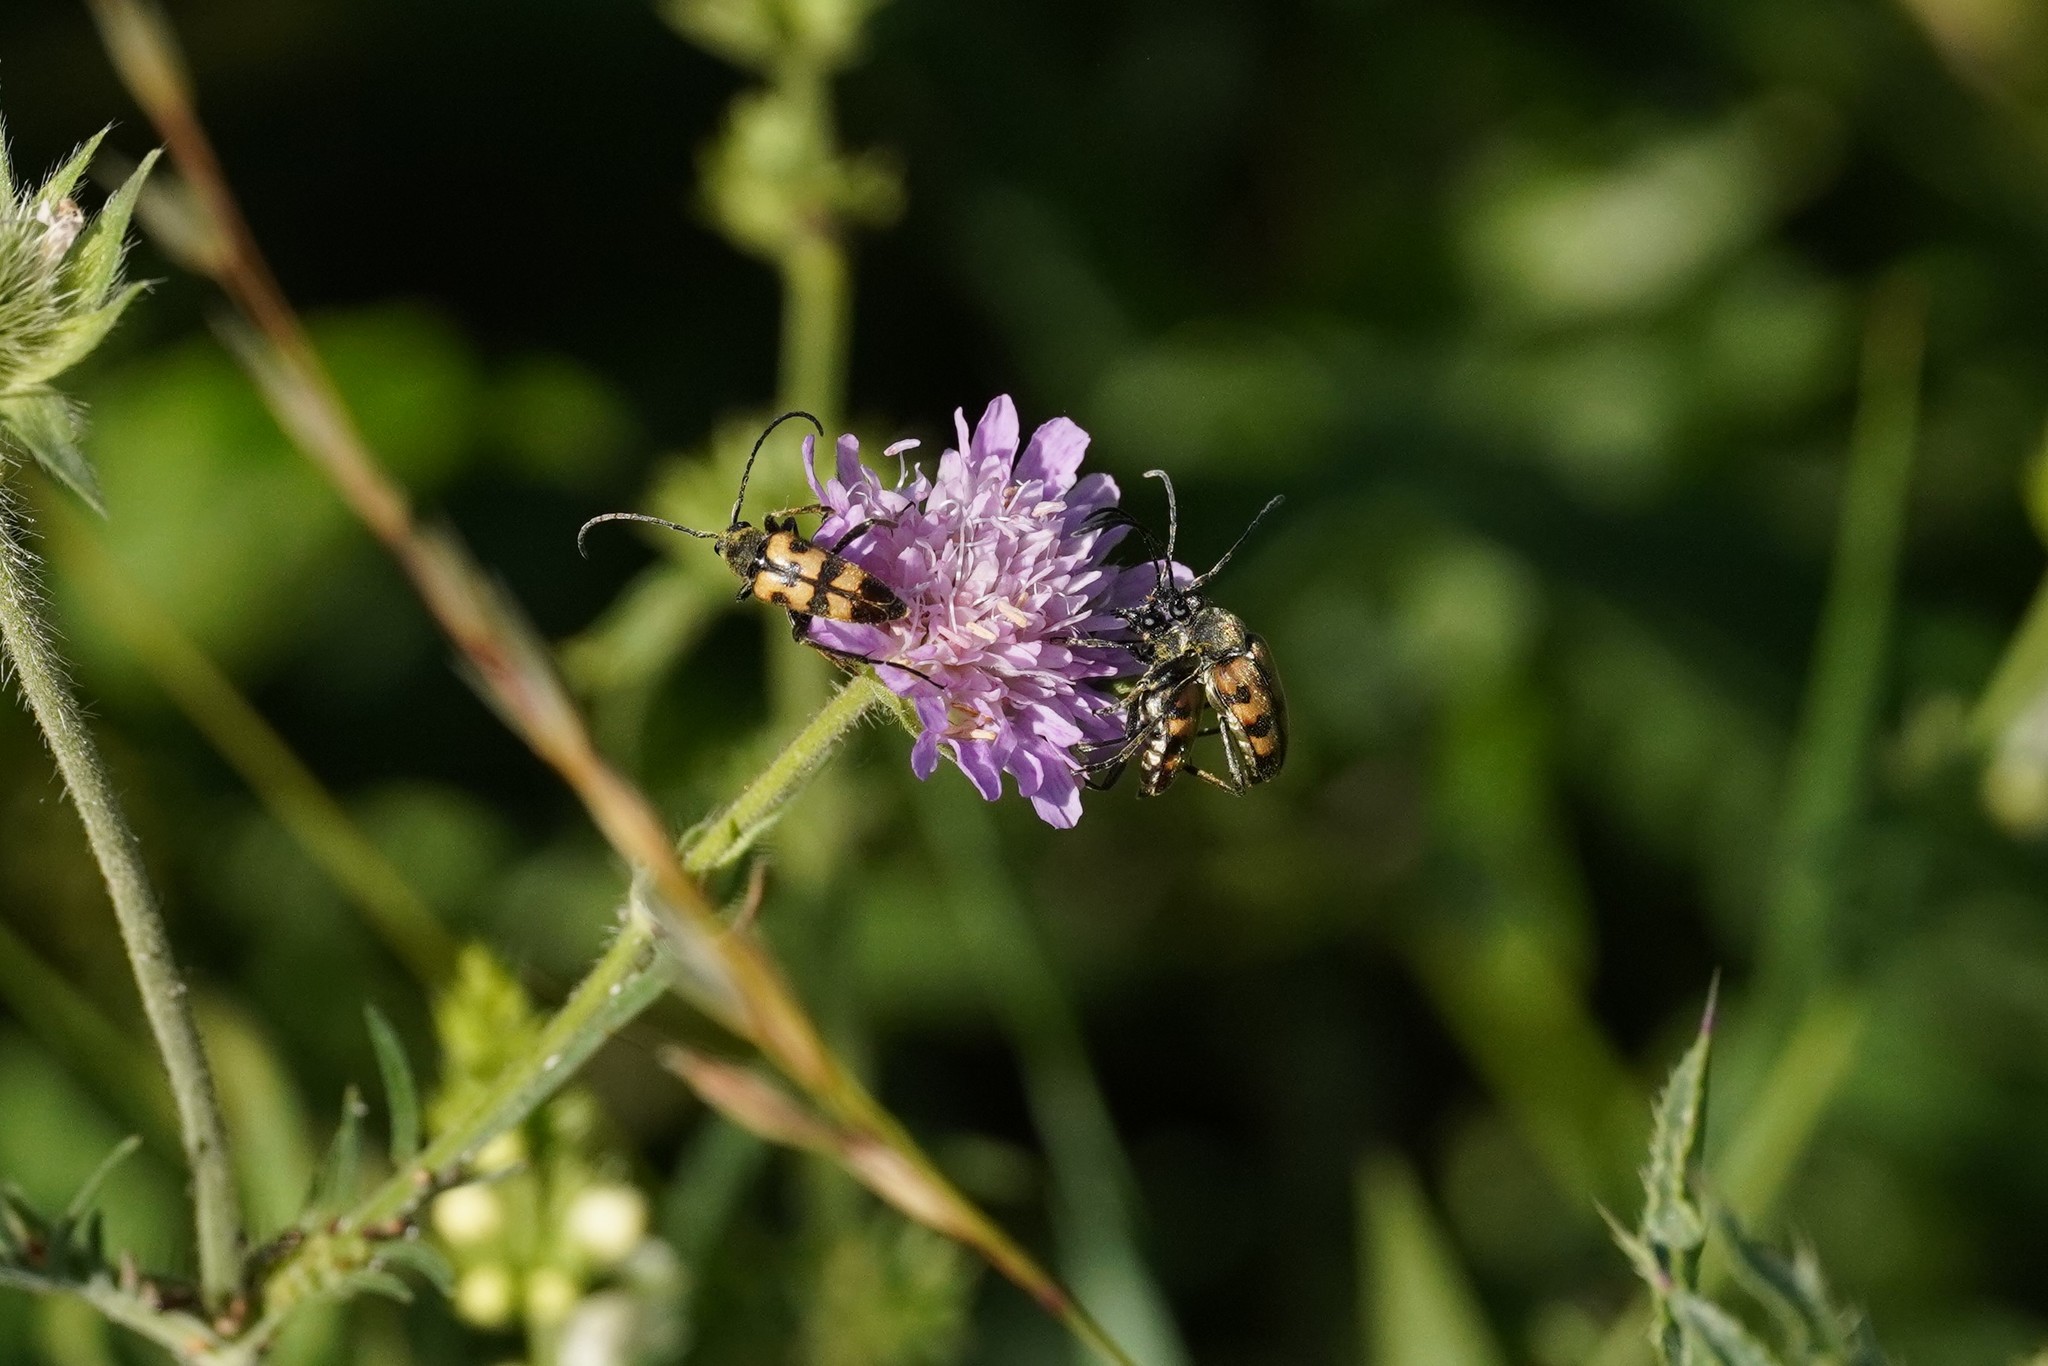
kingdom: Animalia
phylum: Arthropoda
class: Insecta
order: Coleoptera
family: Cerambycidae
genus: Pachytodes
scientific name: Pachytodes
